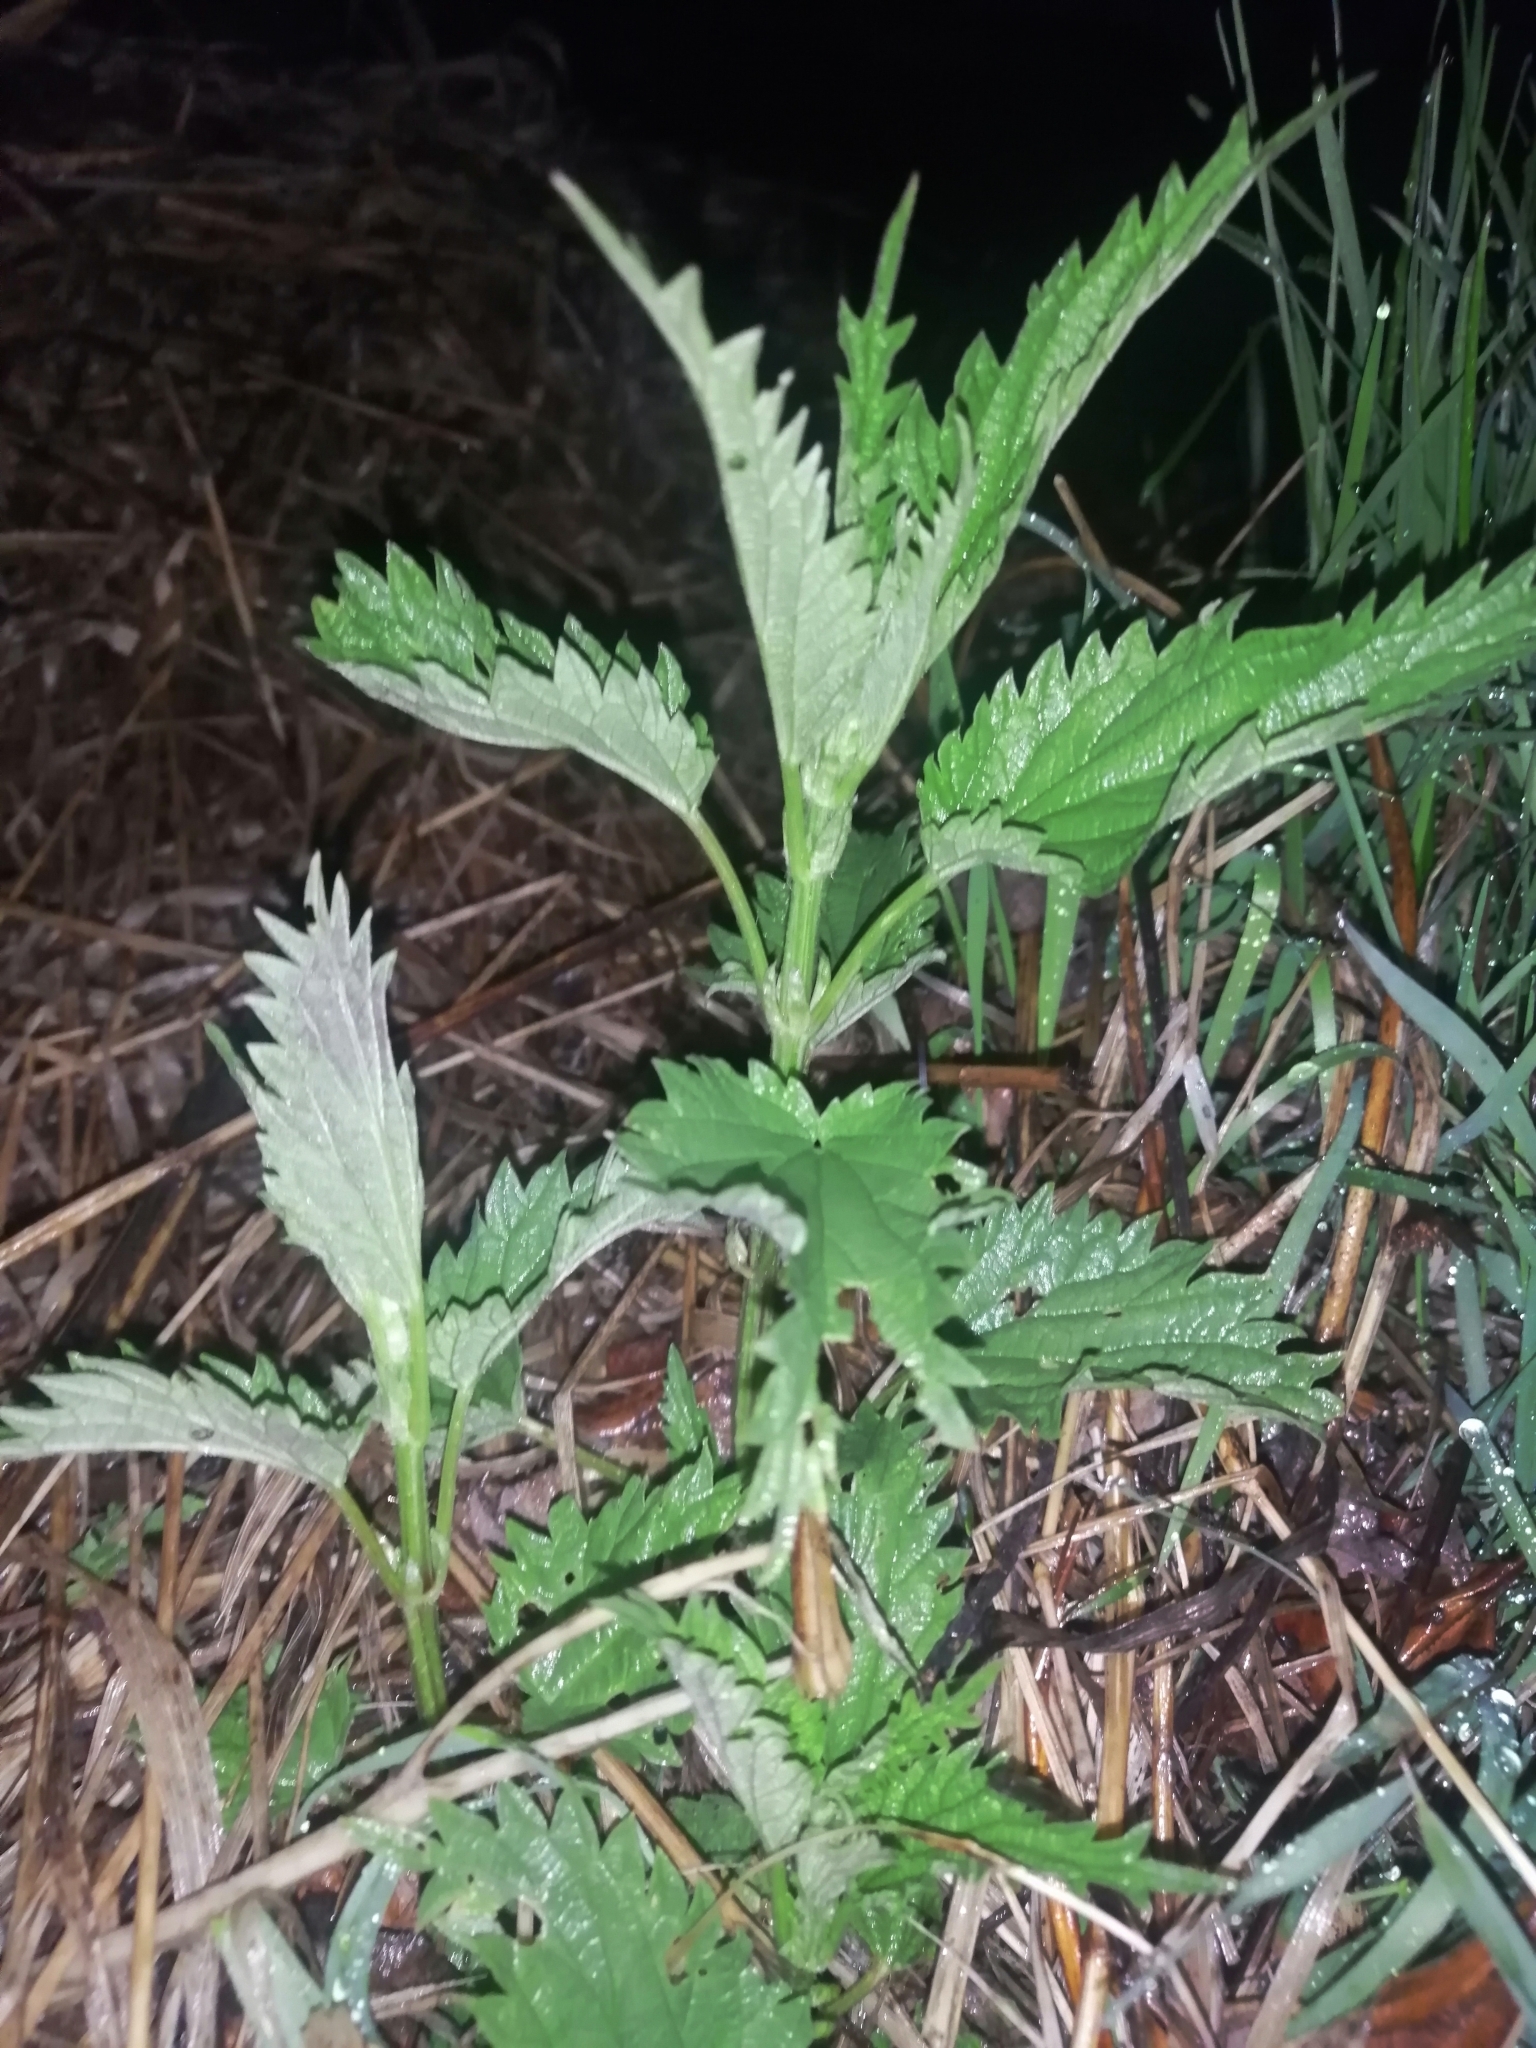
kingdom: Plantae
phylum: Tracheophyta
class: Magnoliopsida
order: Rosales
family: Urticaceae
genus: Urtica
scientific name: Urtica dioica
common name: Common nettle
